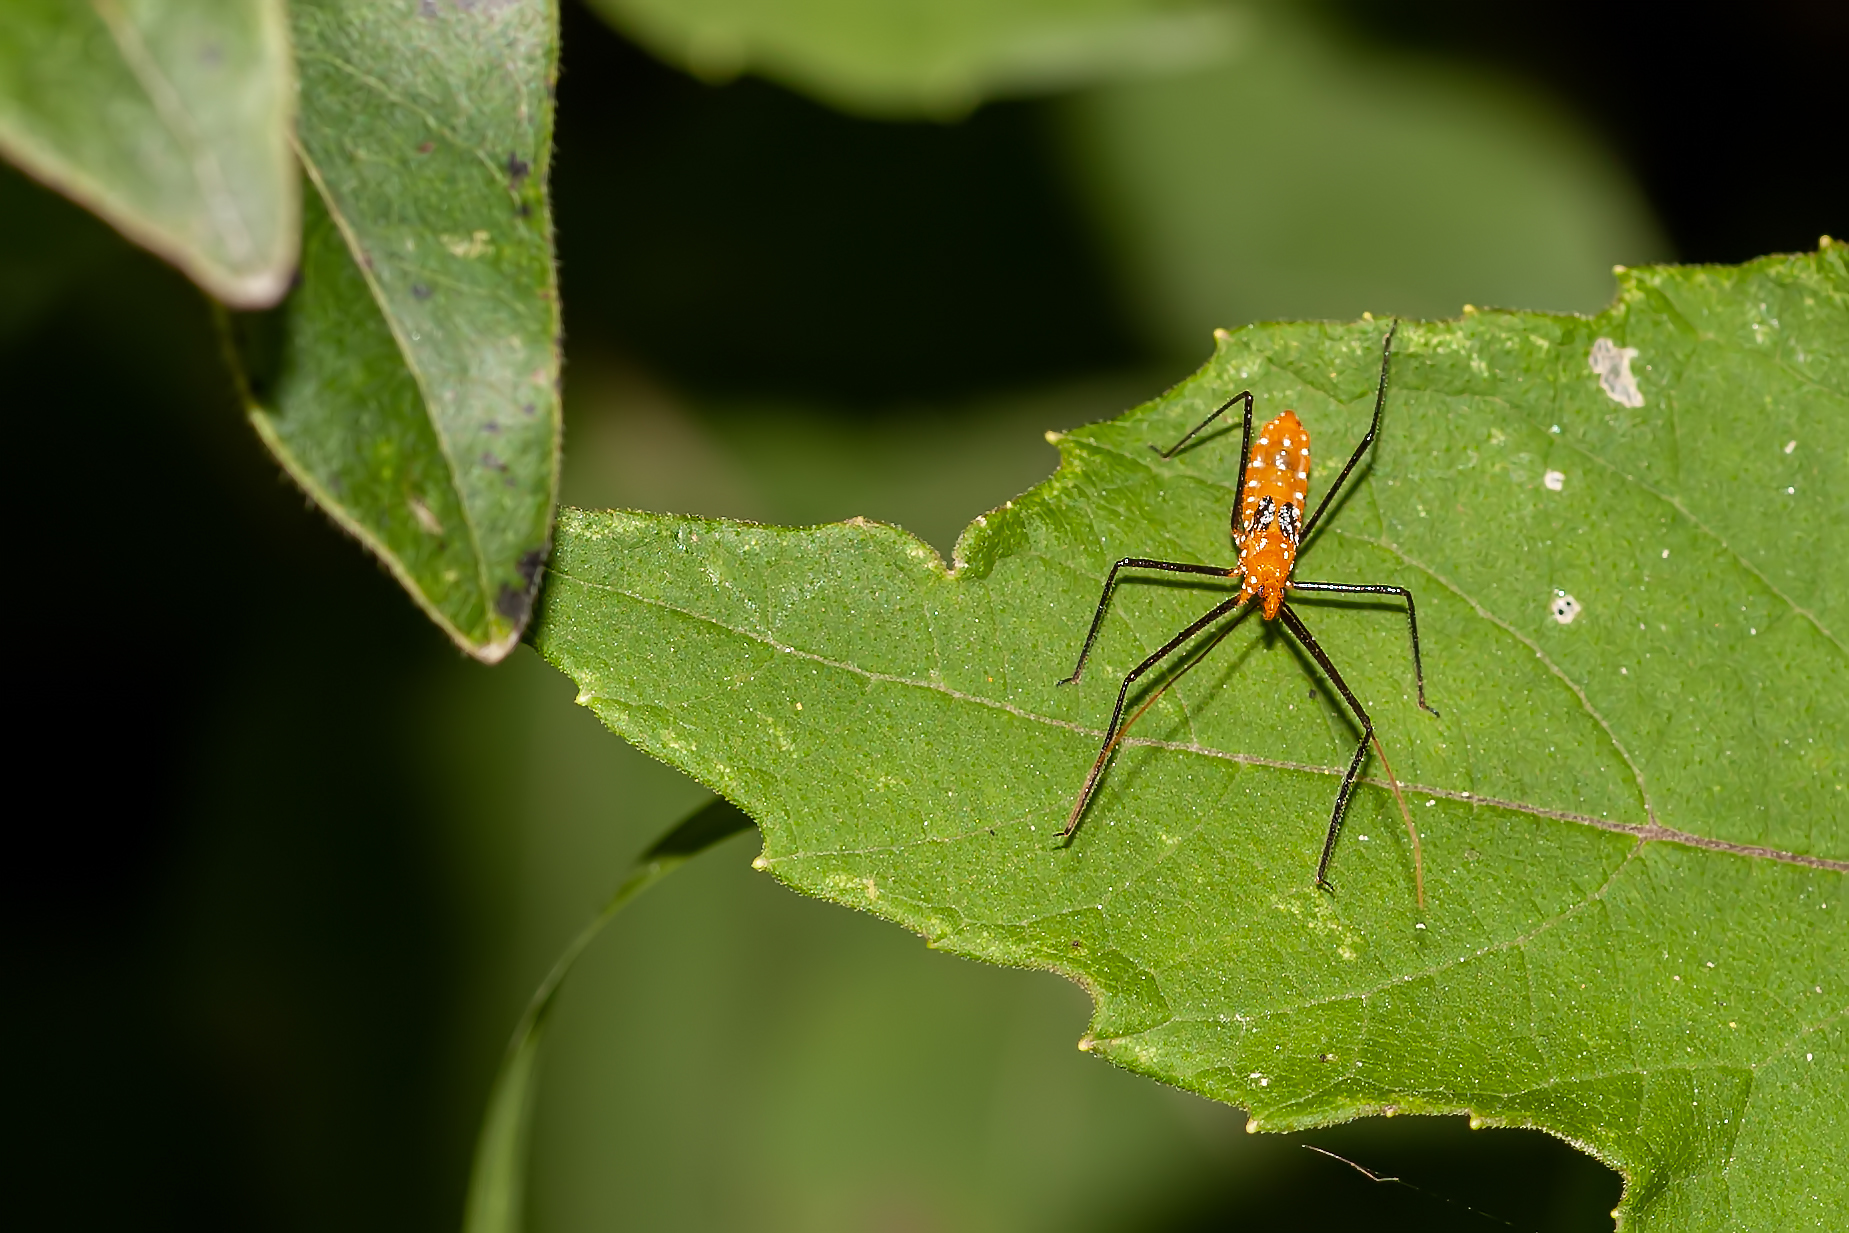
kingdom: Animalia
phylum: Arthropoda
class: Insecta
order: Hemiptera
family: Reduviidae
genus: Zelus
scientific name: Zelus longipes
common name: Milkweed assassin bug
